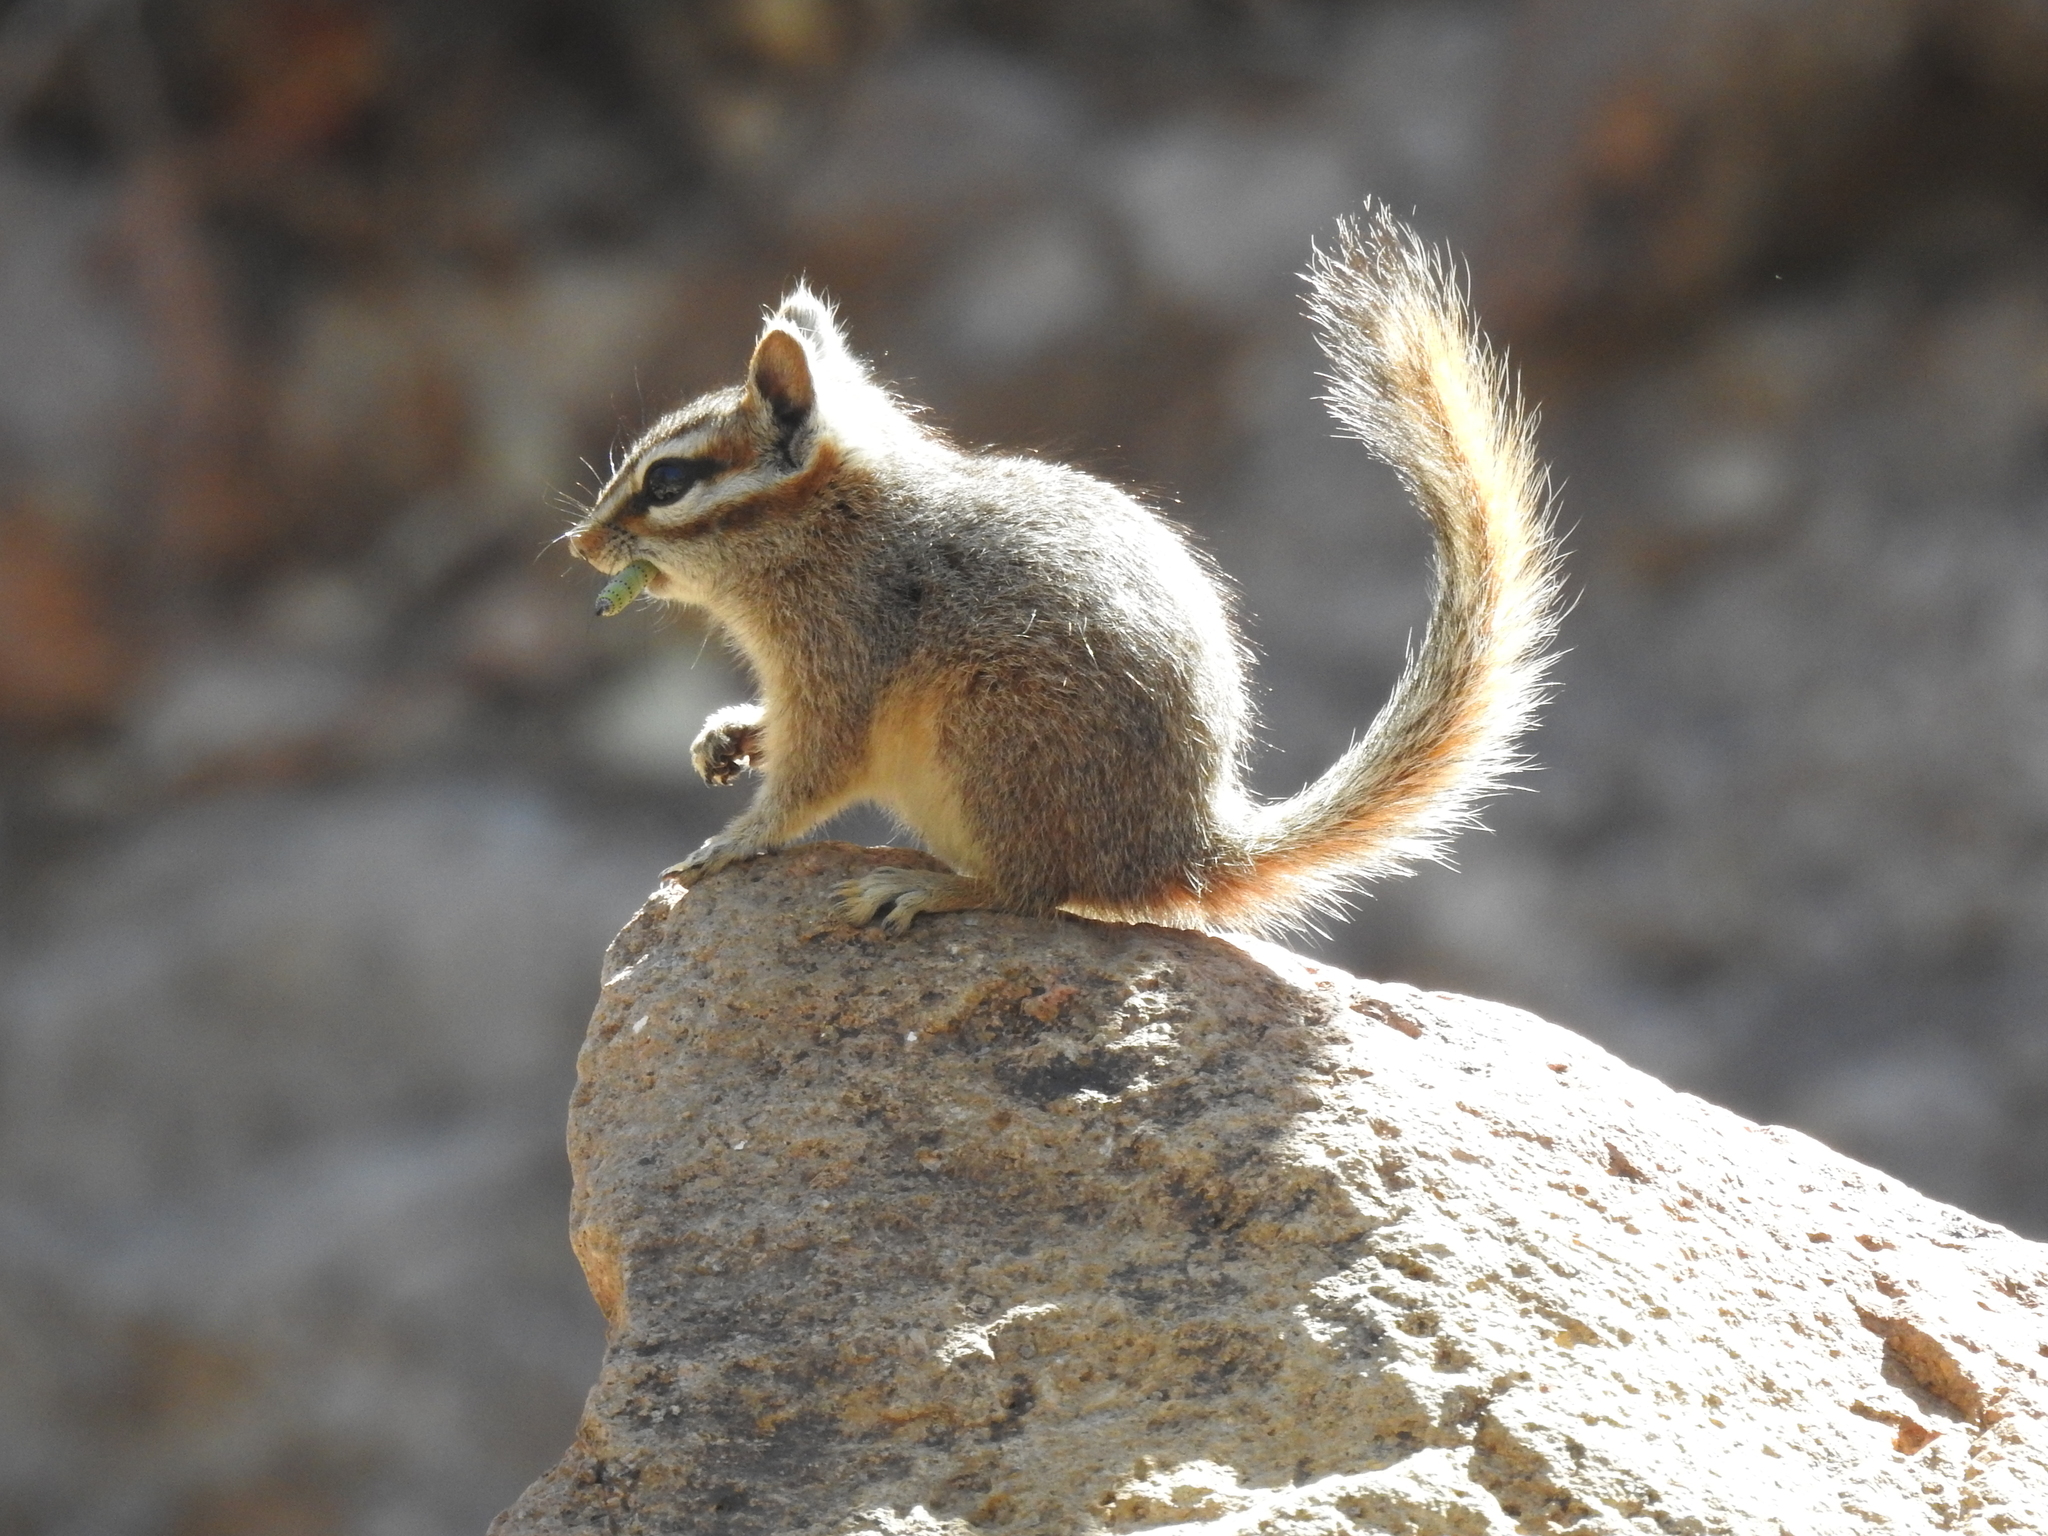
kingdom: Animalia
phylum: Chordata
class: Mammalia
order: Rodentia
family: Sciuridae
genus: Tamias
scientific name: Tamias dorsalis
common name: Cliff chipmunk
